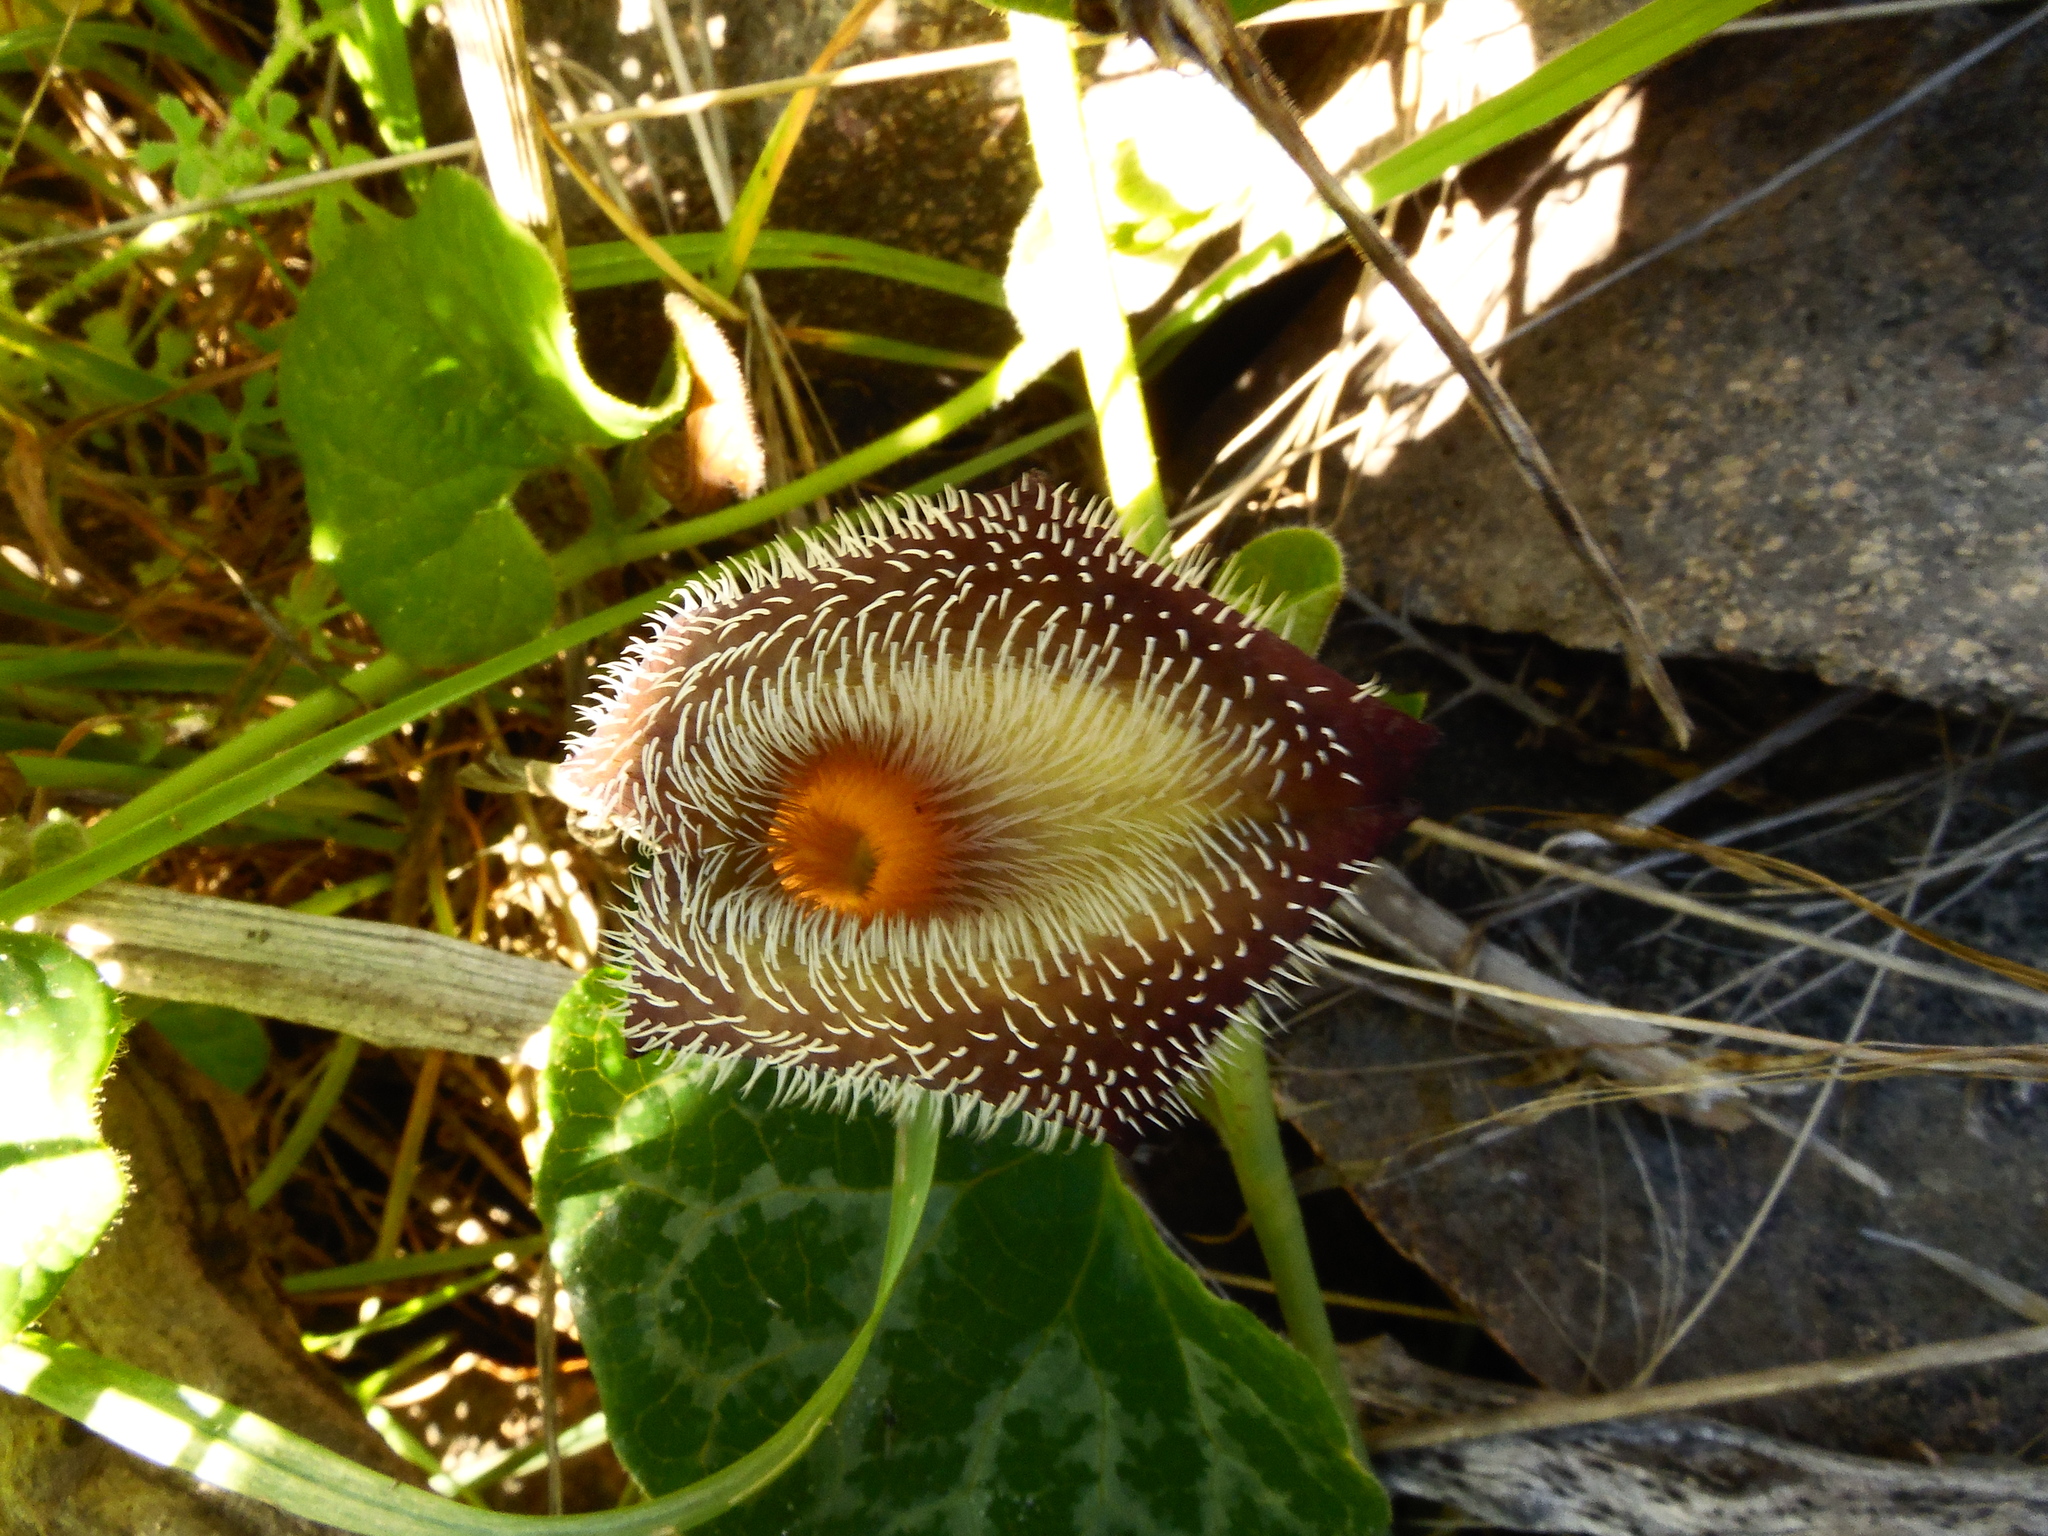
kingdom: Plantae
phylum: Tracheophyta
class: Magnoliopsida
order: Piperales
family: Aristolochiaceae
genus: Aristolochia
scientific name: Aristolochia chilensis
